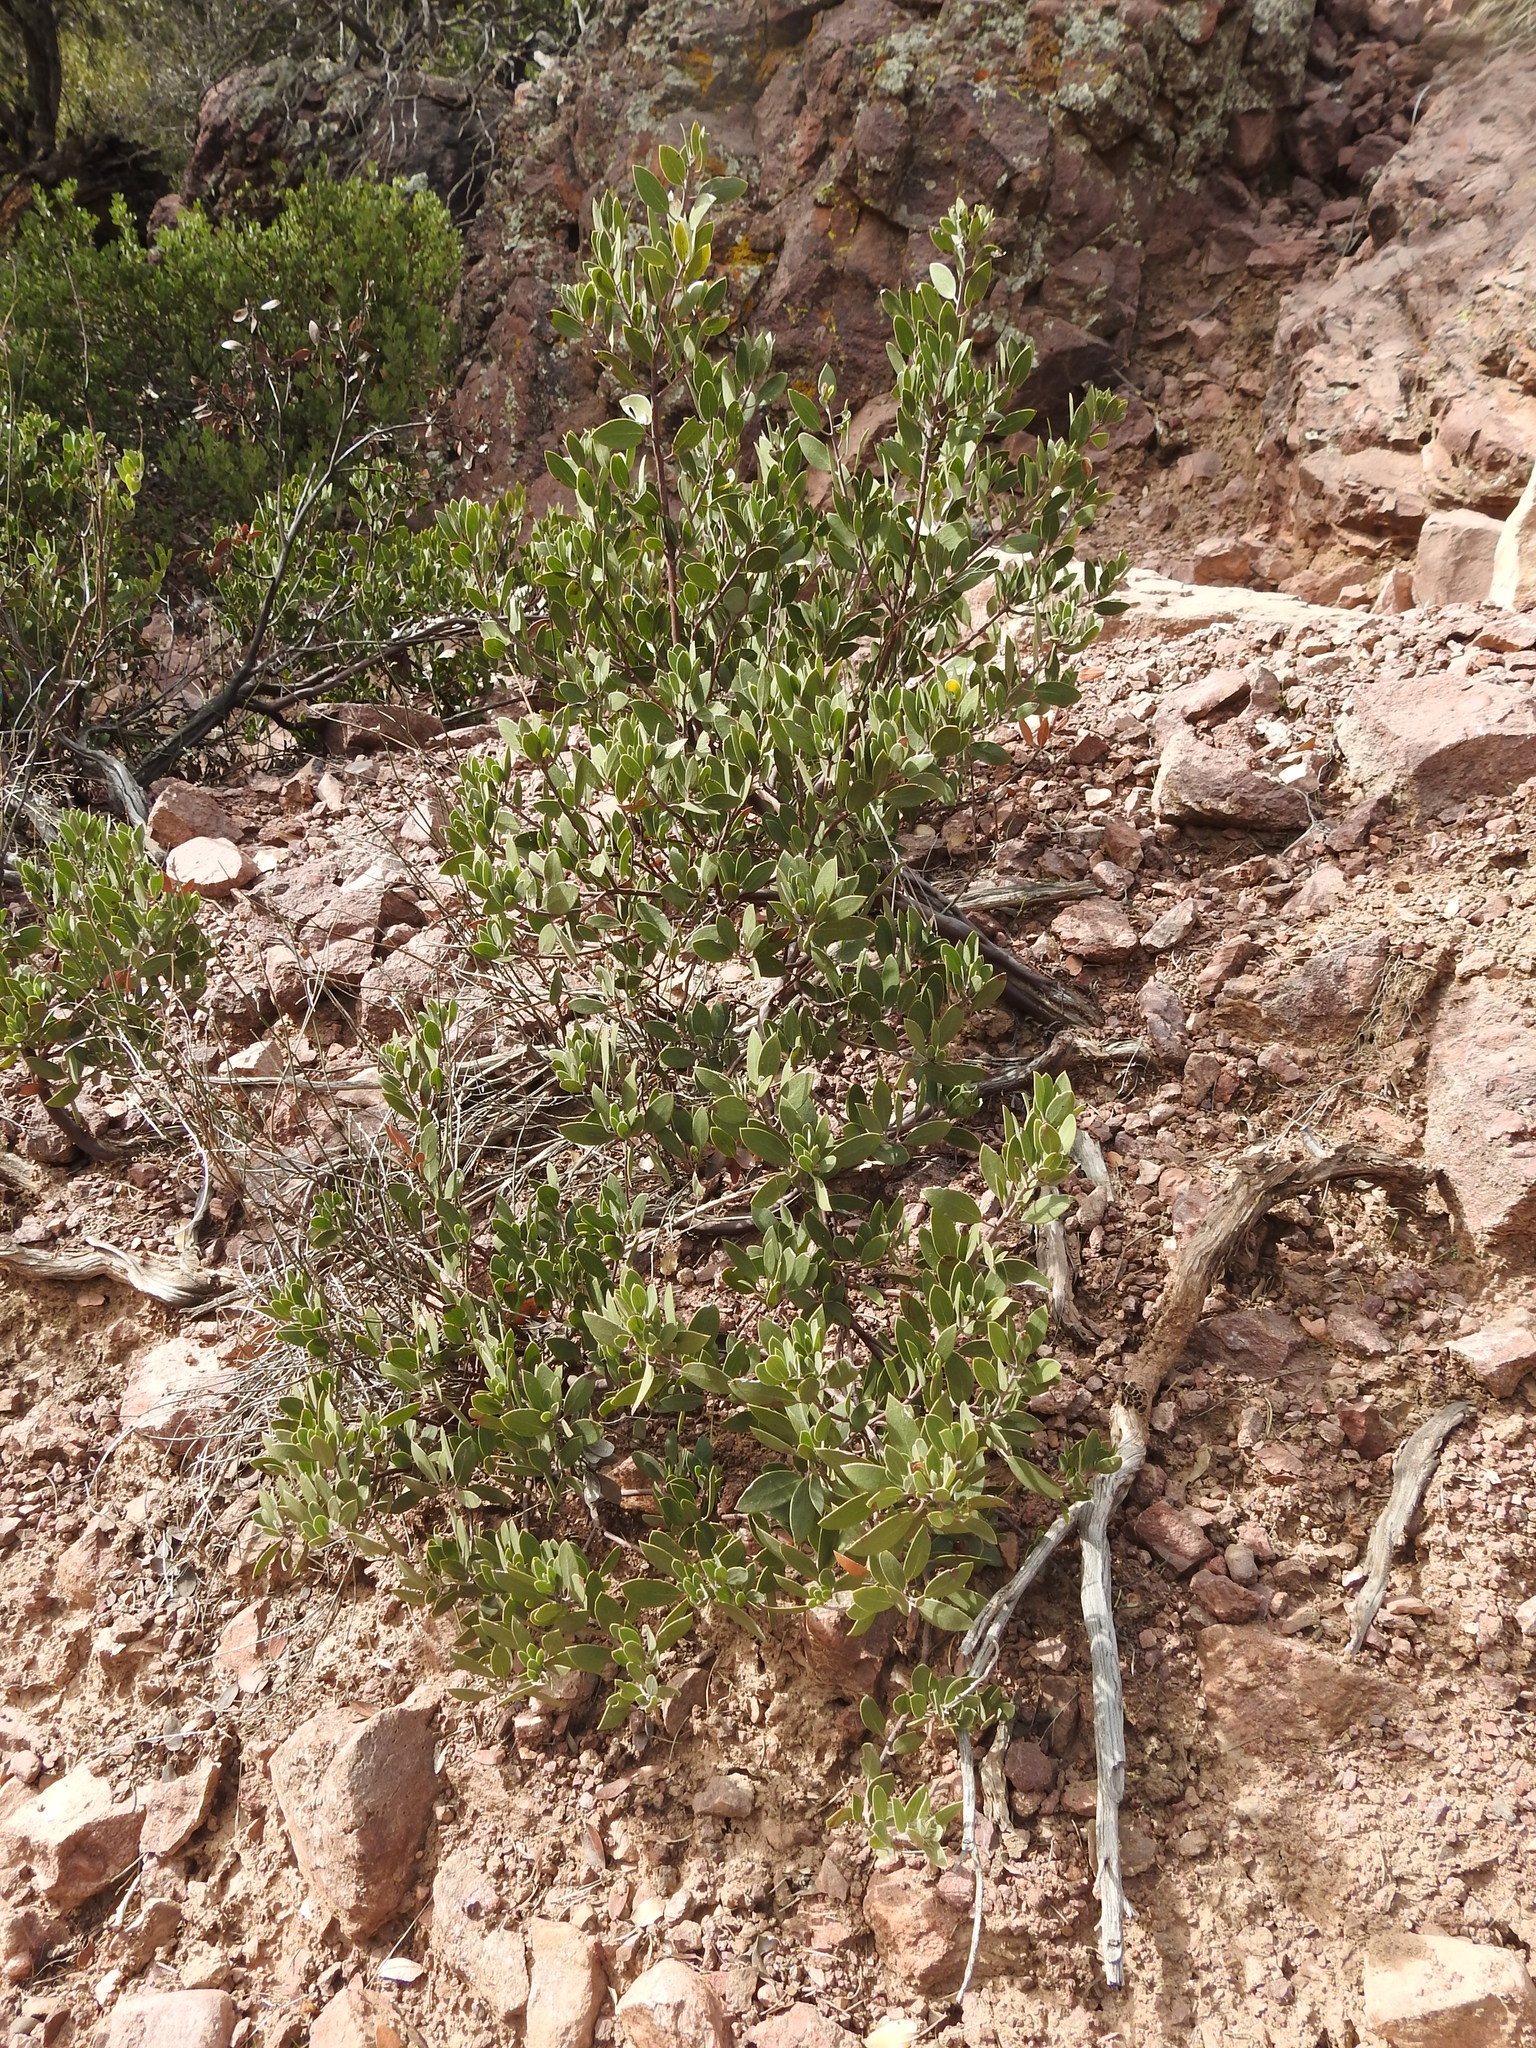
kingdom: Plantae
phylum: Tracheophyta
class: Magnoliopsida
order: Ericales
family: Ericaceae
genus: Arctostaphylos
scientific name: Arctostaphylos pungens
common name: Mexican manzanita
